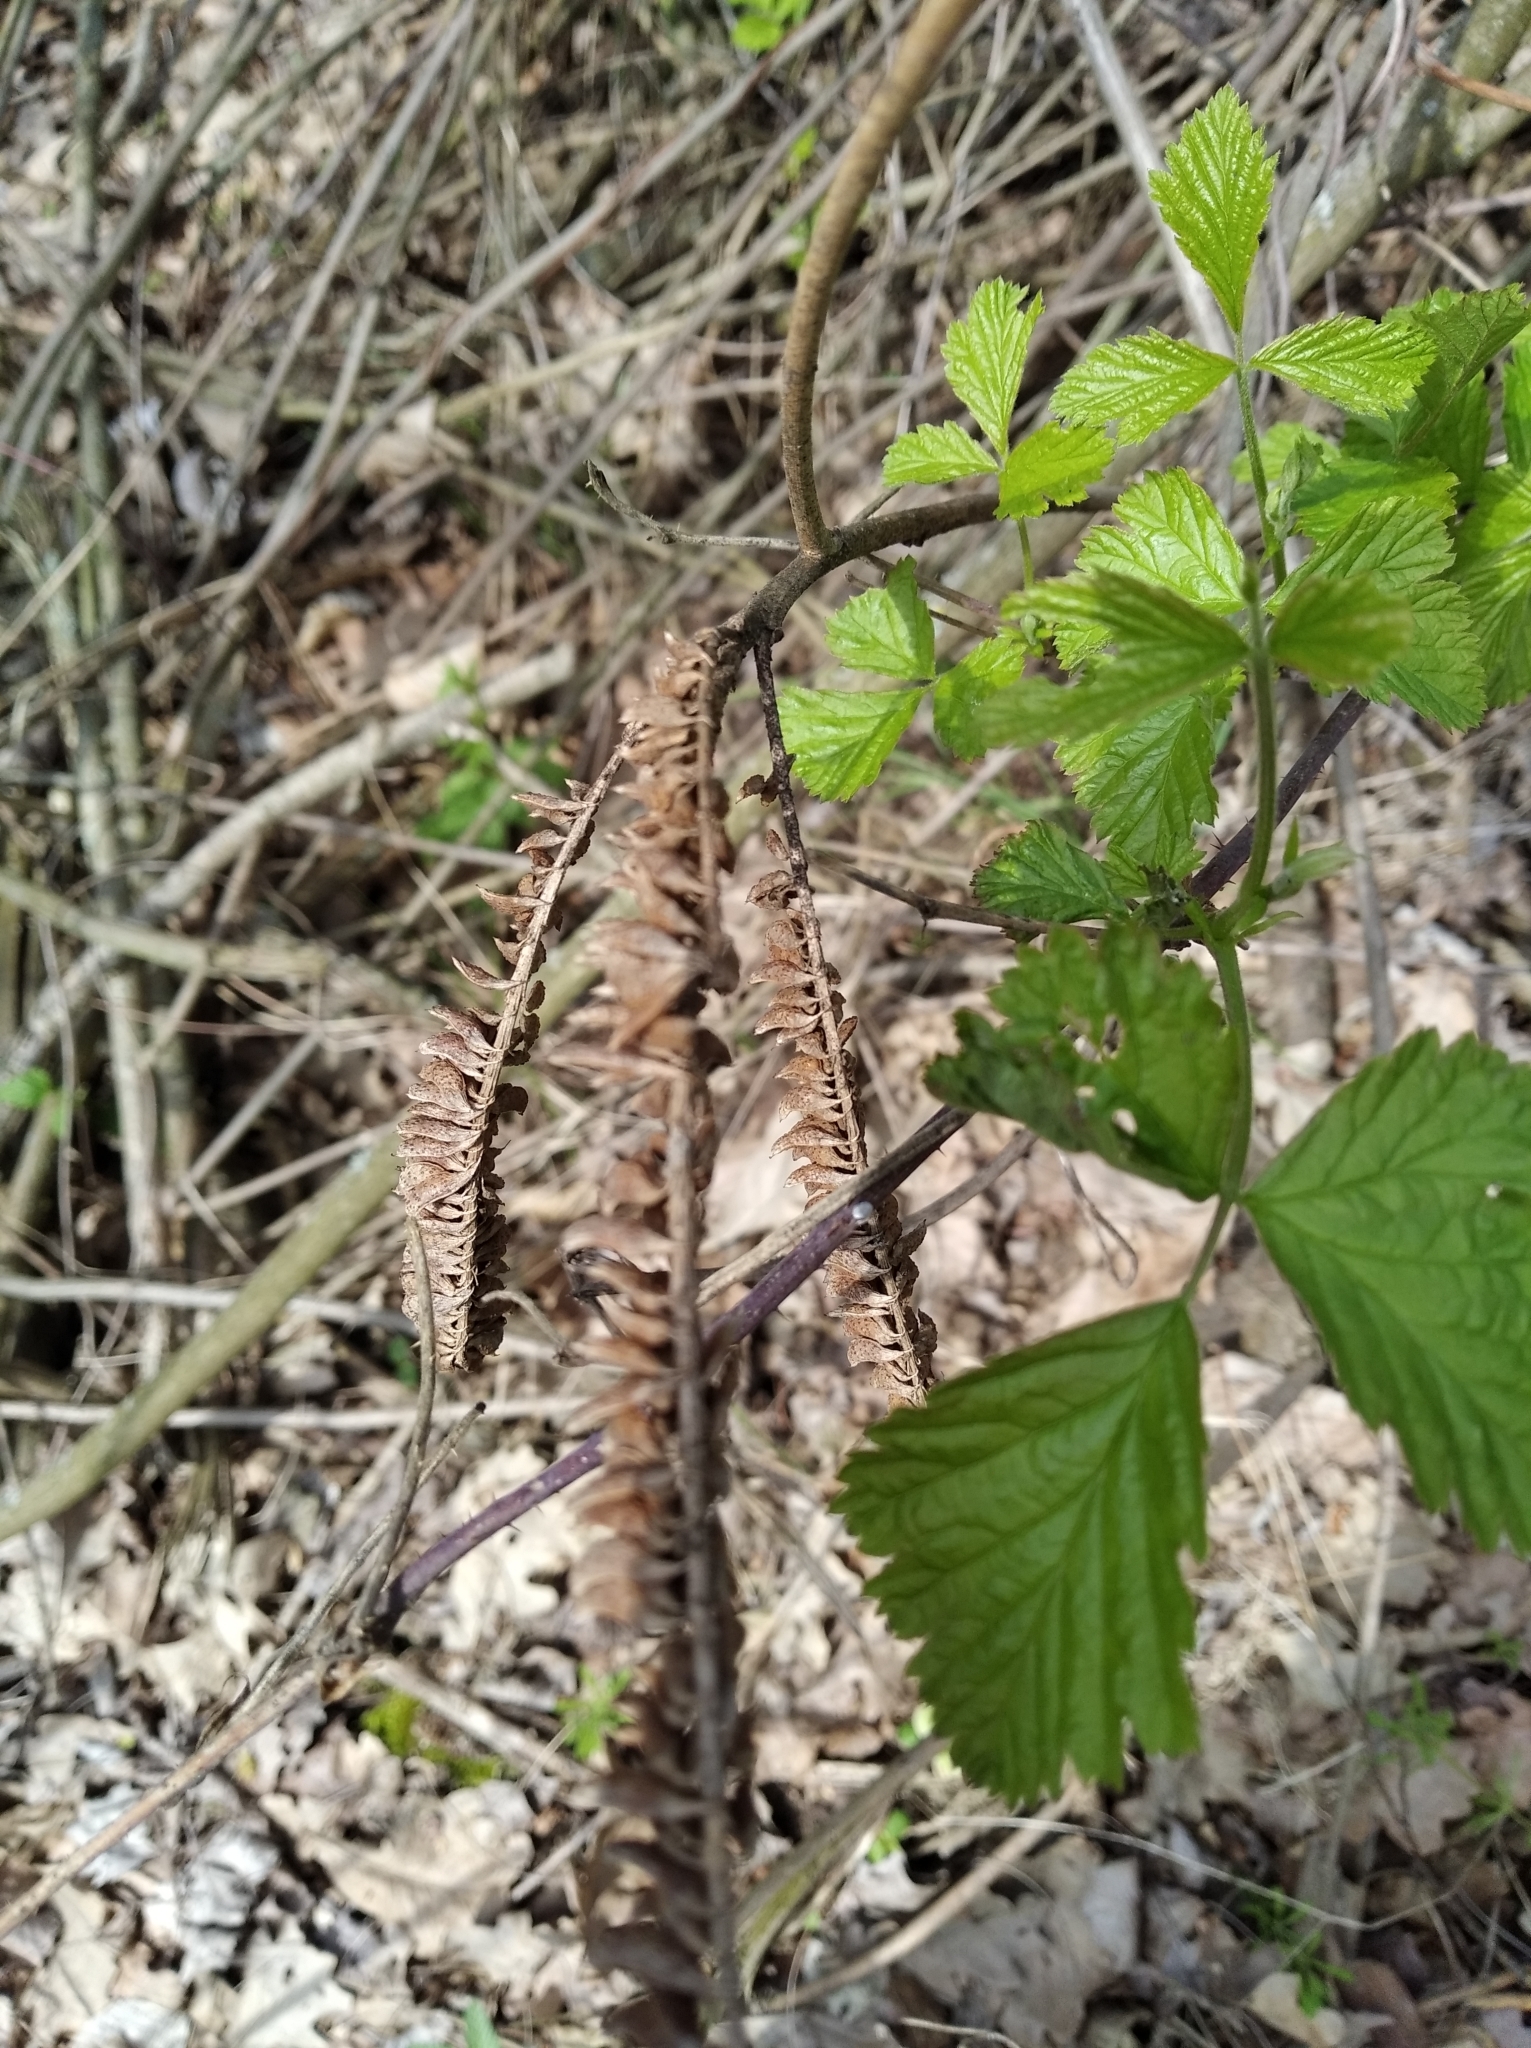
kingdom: Plantae
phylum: Tracheophyta
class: Magnoliopsida
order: Fabales
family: Fabaceae
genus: Amorpha
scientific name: Amorpha fruticosa
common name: False indigo
